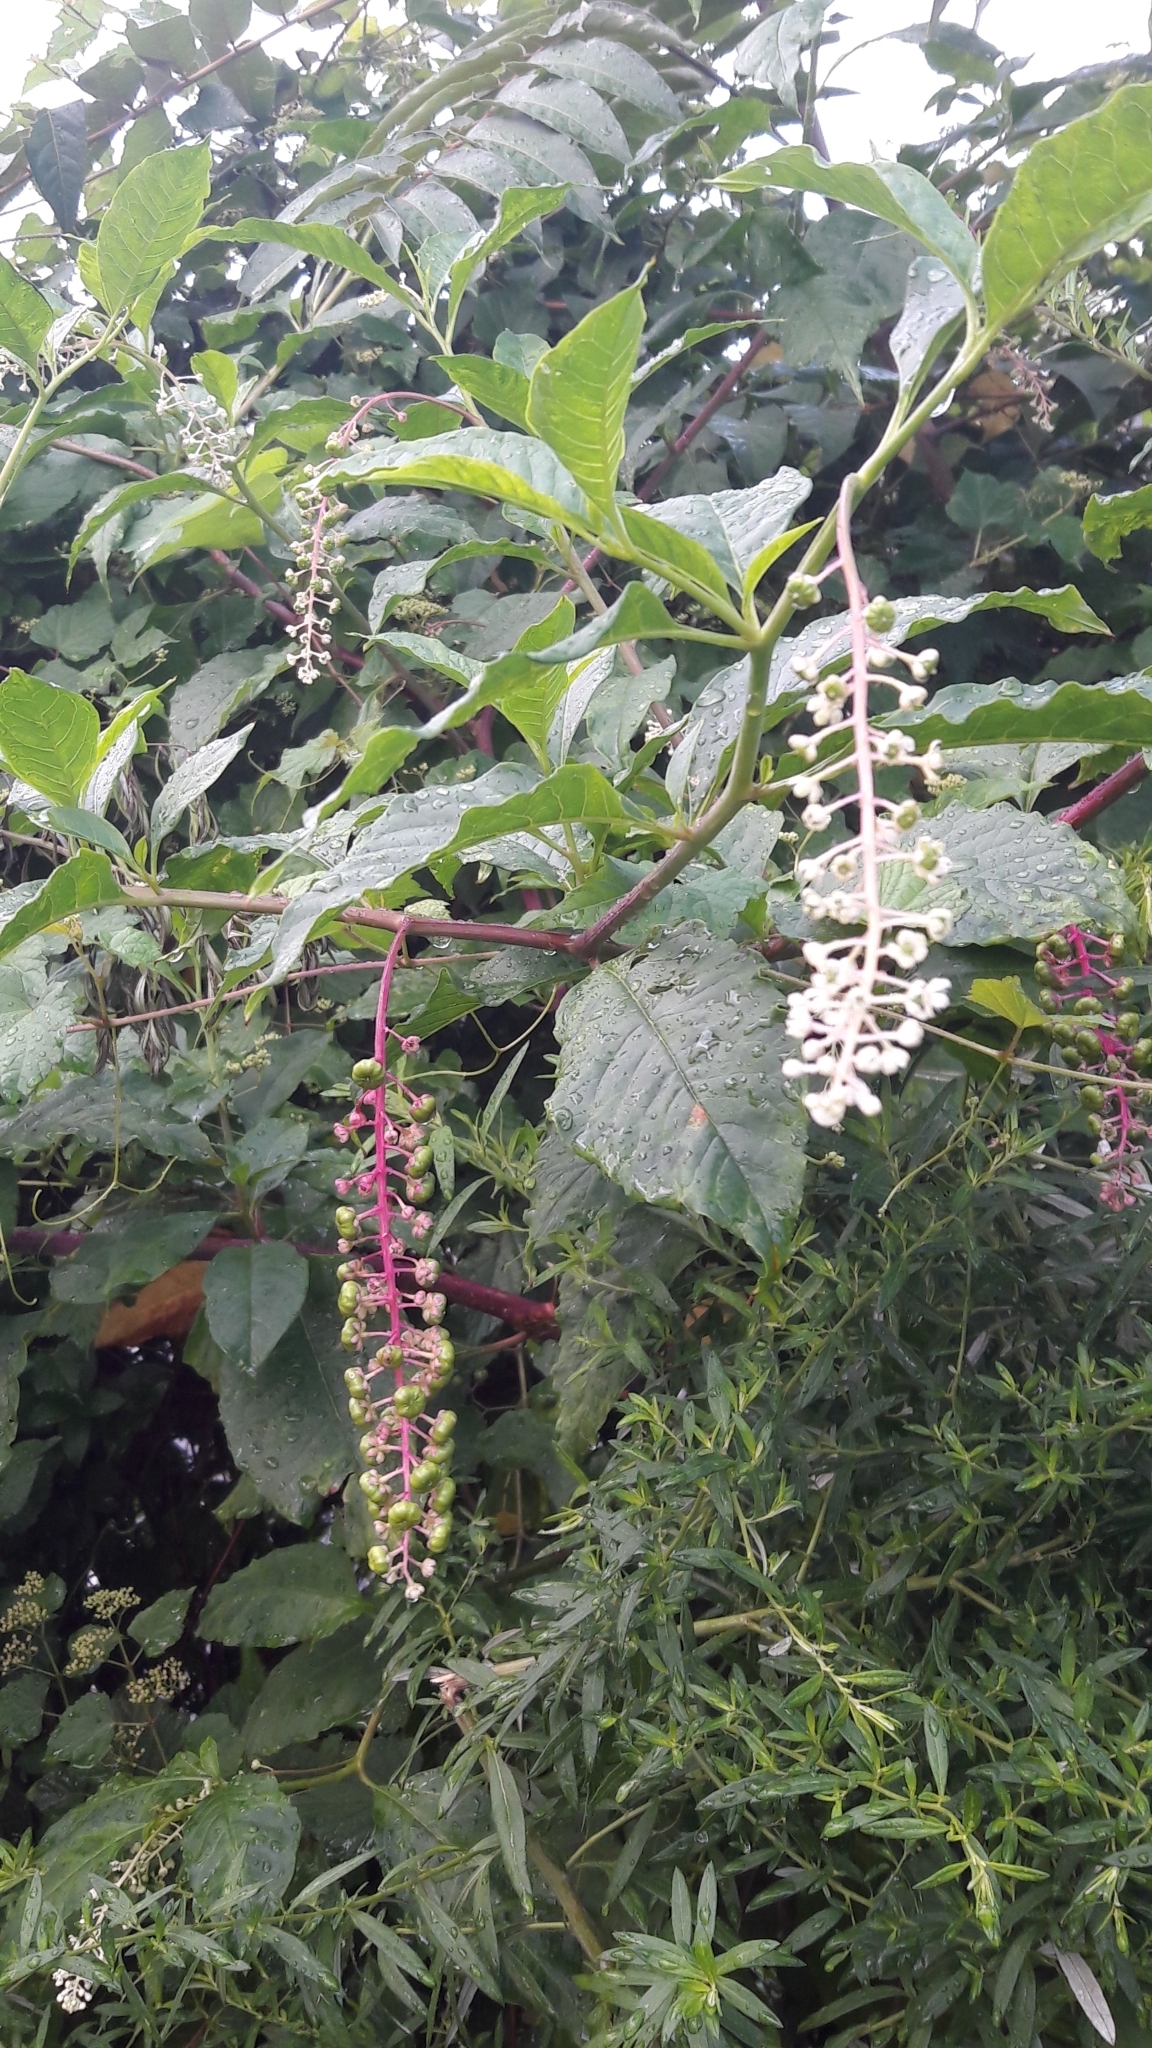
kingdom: Plantae
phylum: Tracheophyta
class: Magnoliopsida
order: Caryophyllales
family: Phytolaccaceae
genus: Phytolacca
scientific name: Phytolacca americana
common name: American pokeweed
